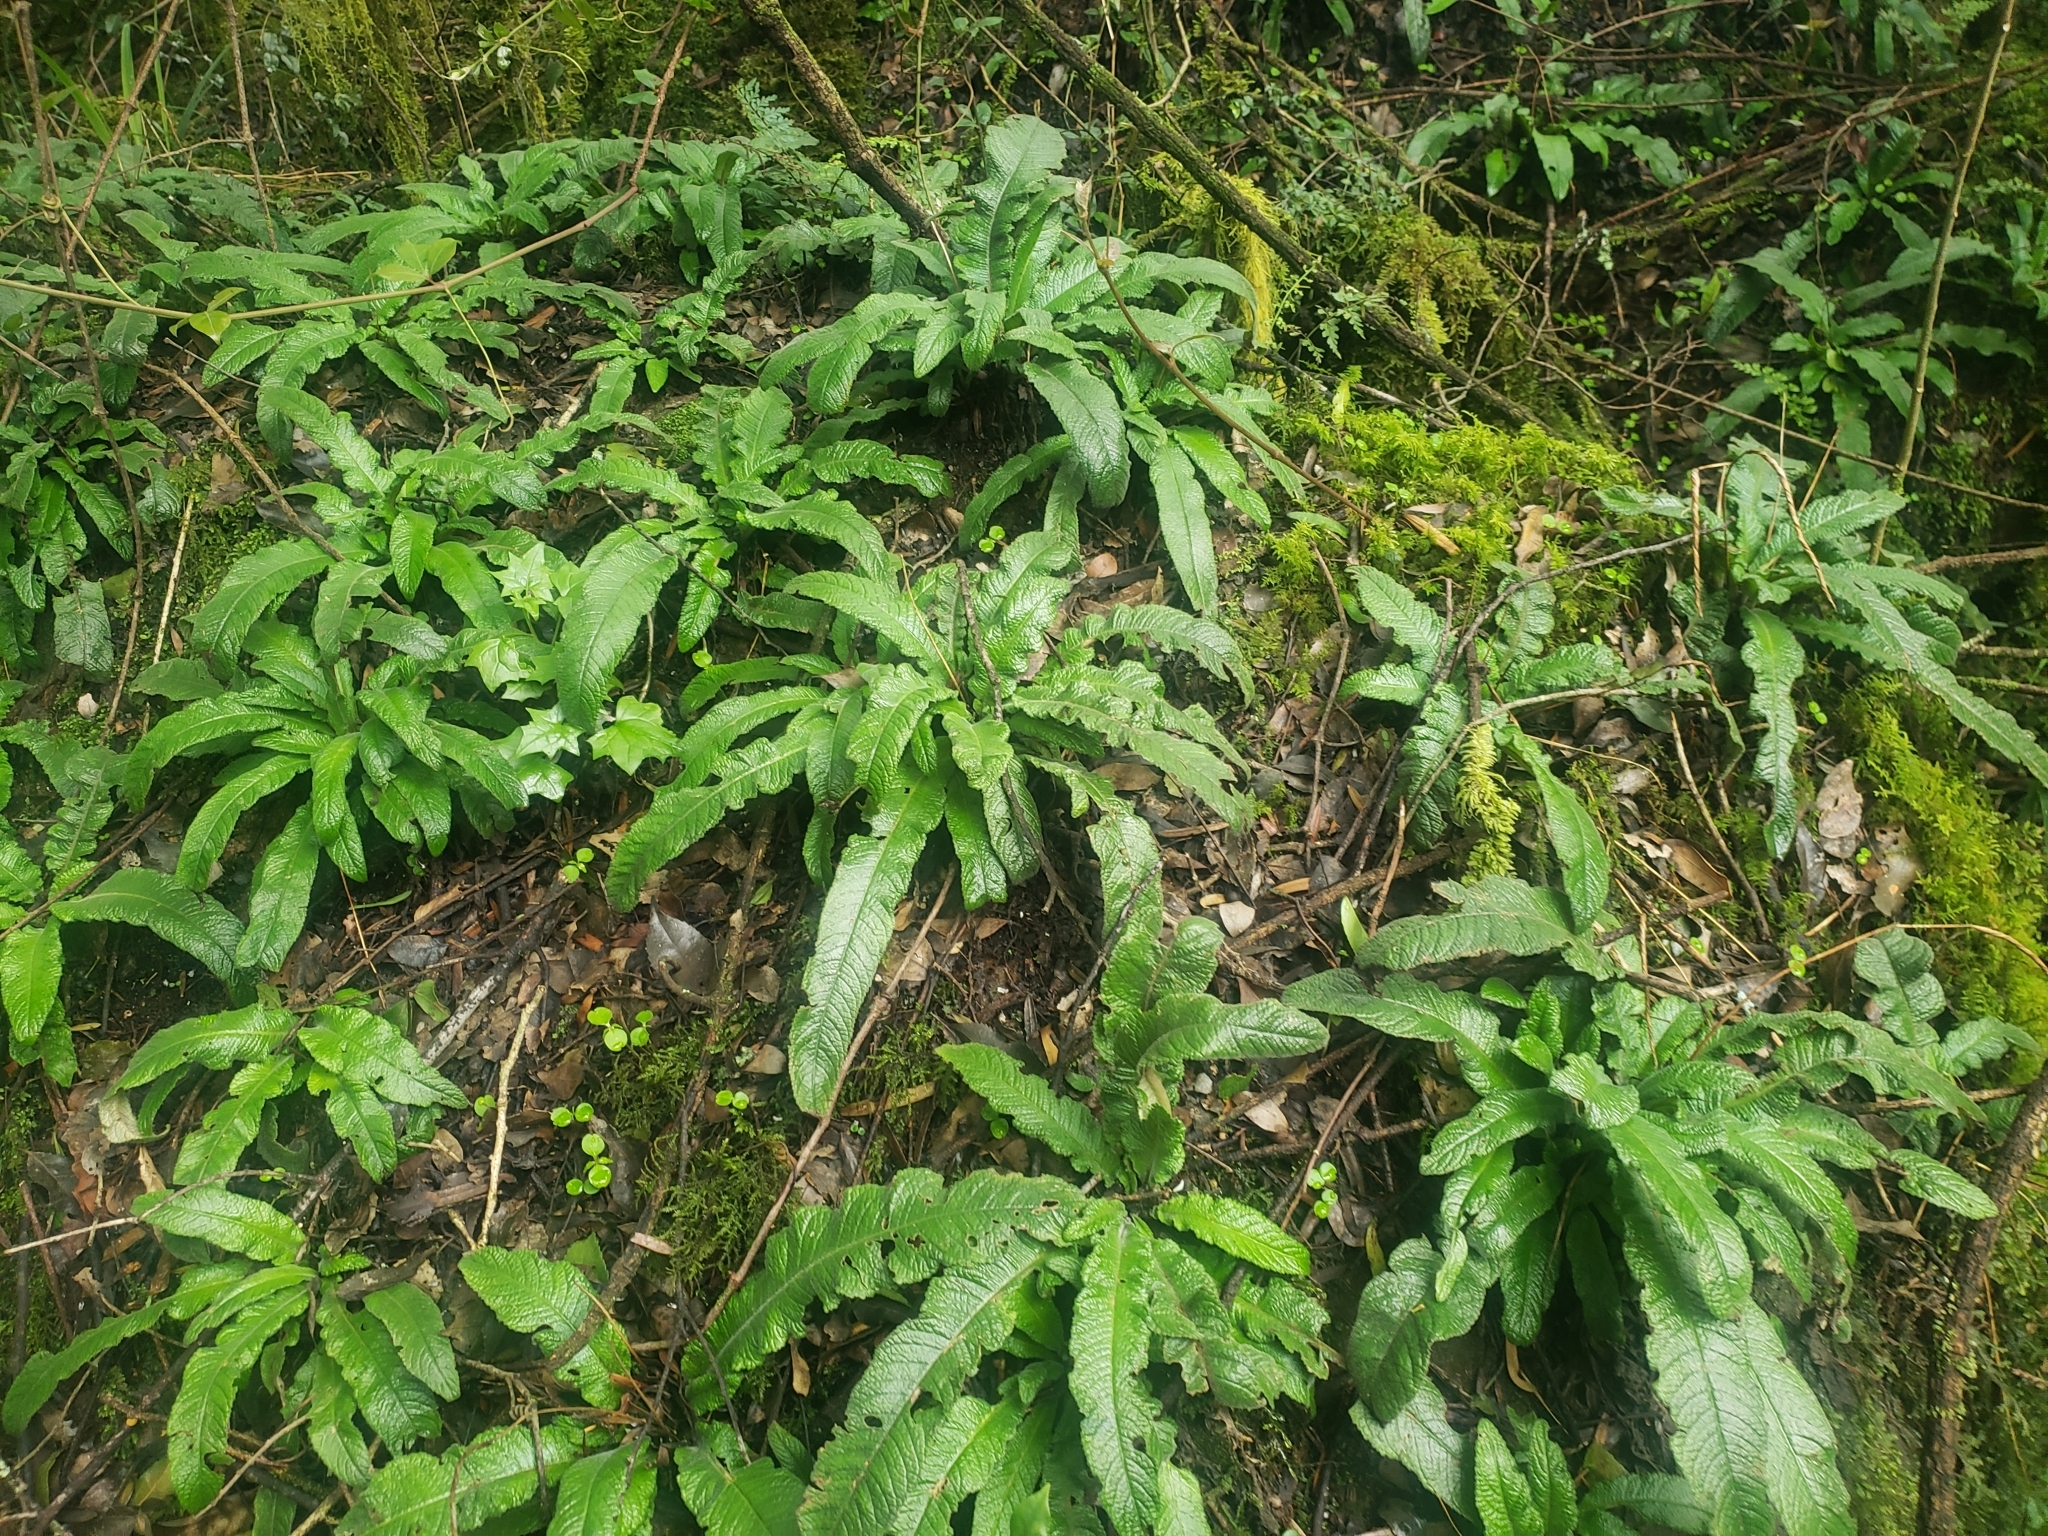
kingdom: Plantae
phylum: Tracheophyta
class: Magnoliopsida
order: Lamiales
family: Gesneriaceae
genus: Streptocarpus
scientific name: Streptocarpus gardenii
